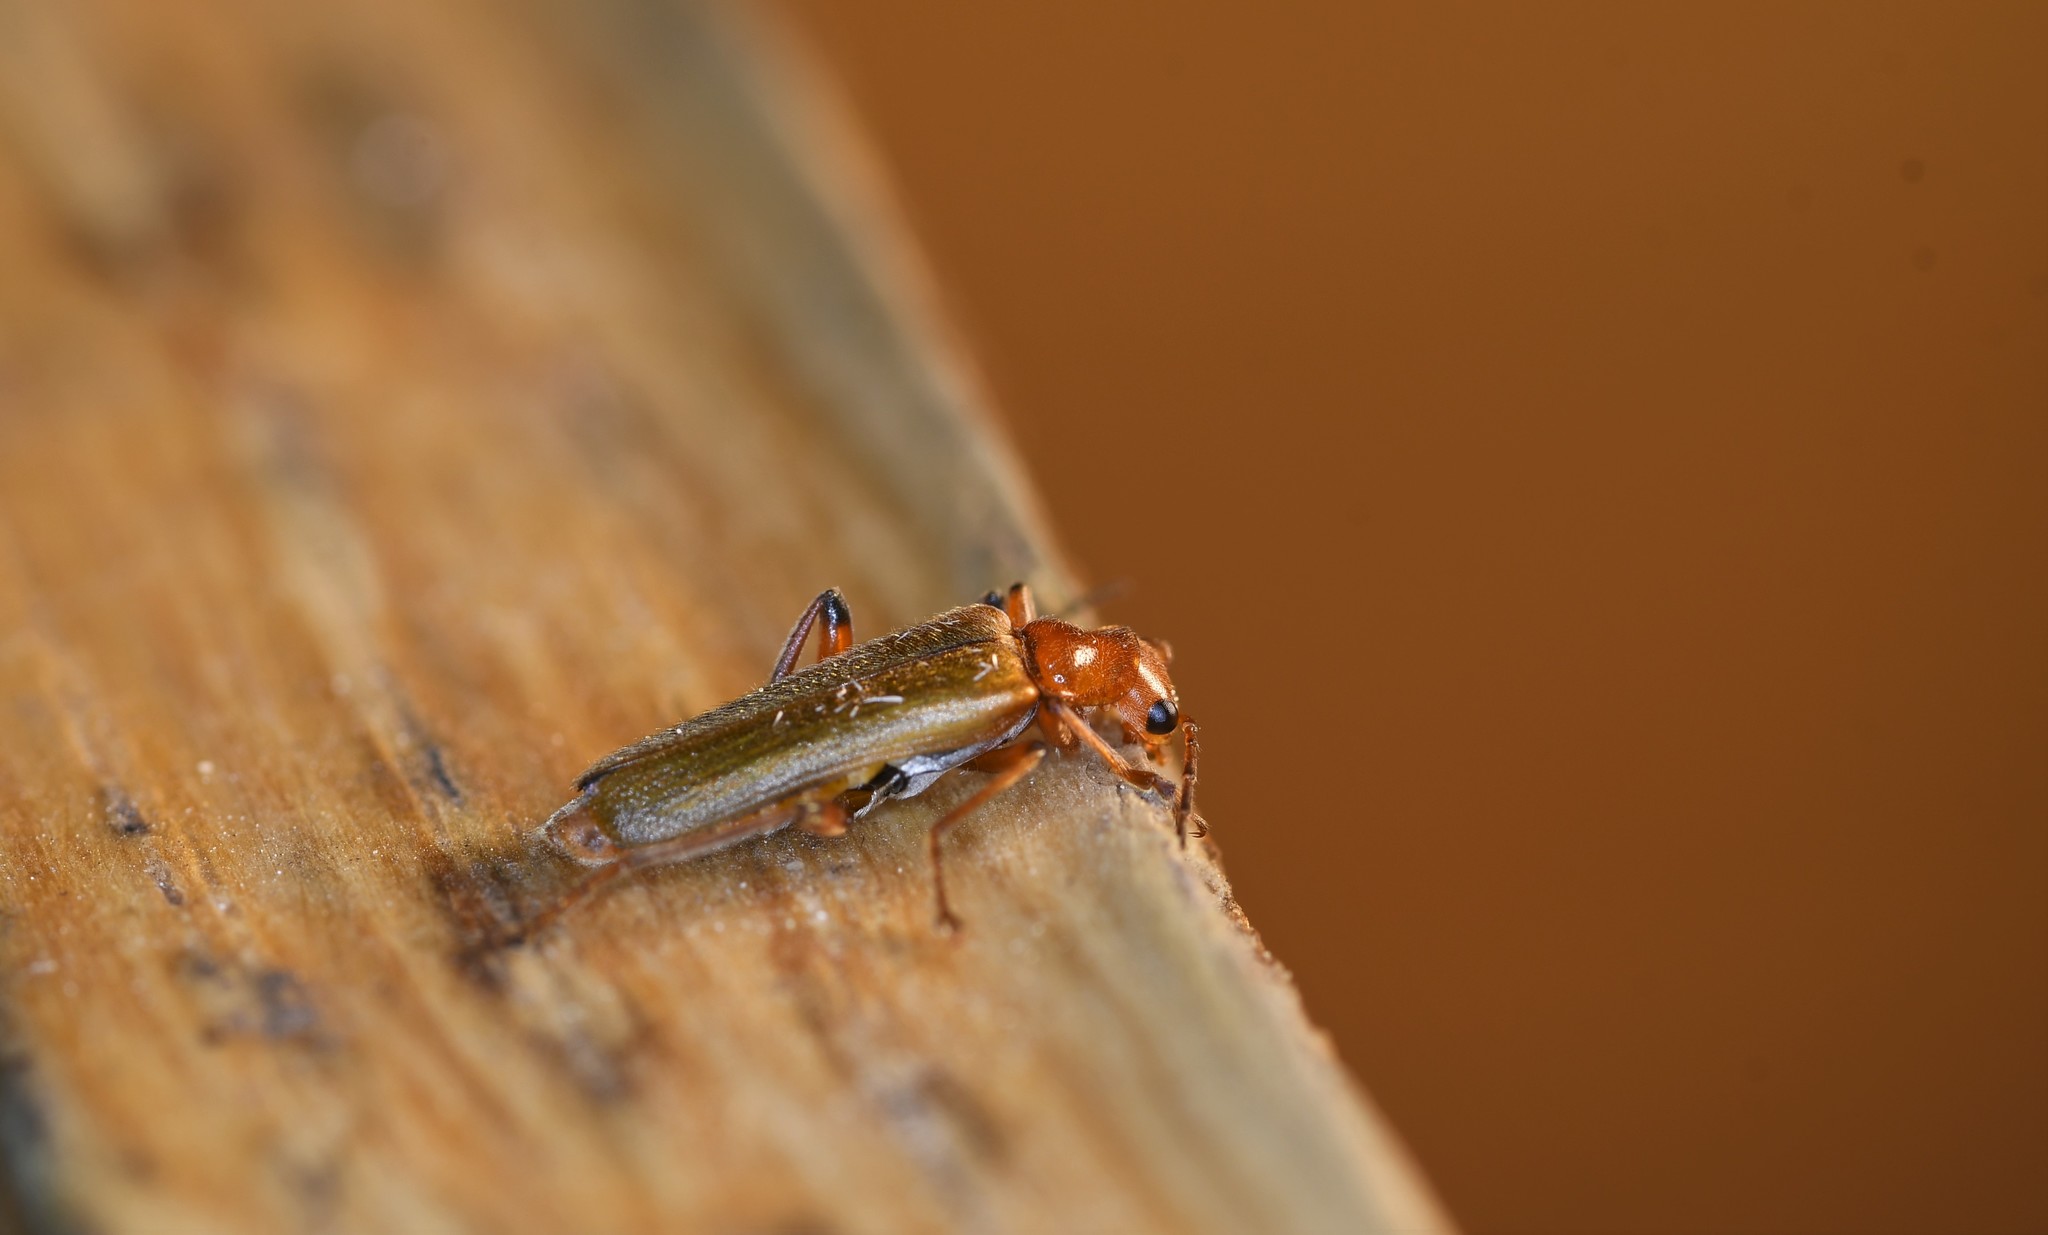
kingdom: Animalia
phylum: Arthropoda
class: Insecta
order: Coleoptera
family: Cantharidae
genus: Cantharis
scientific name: Cantharis cryptica
